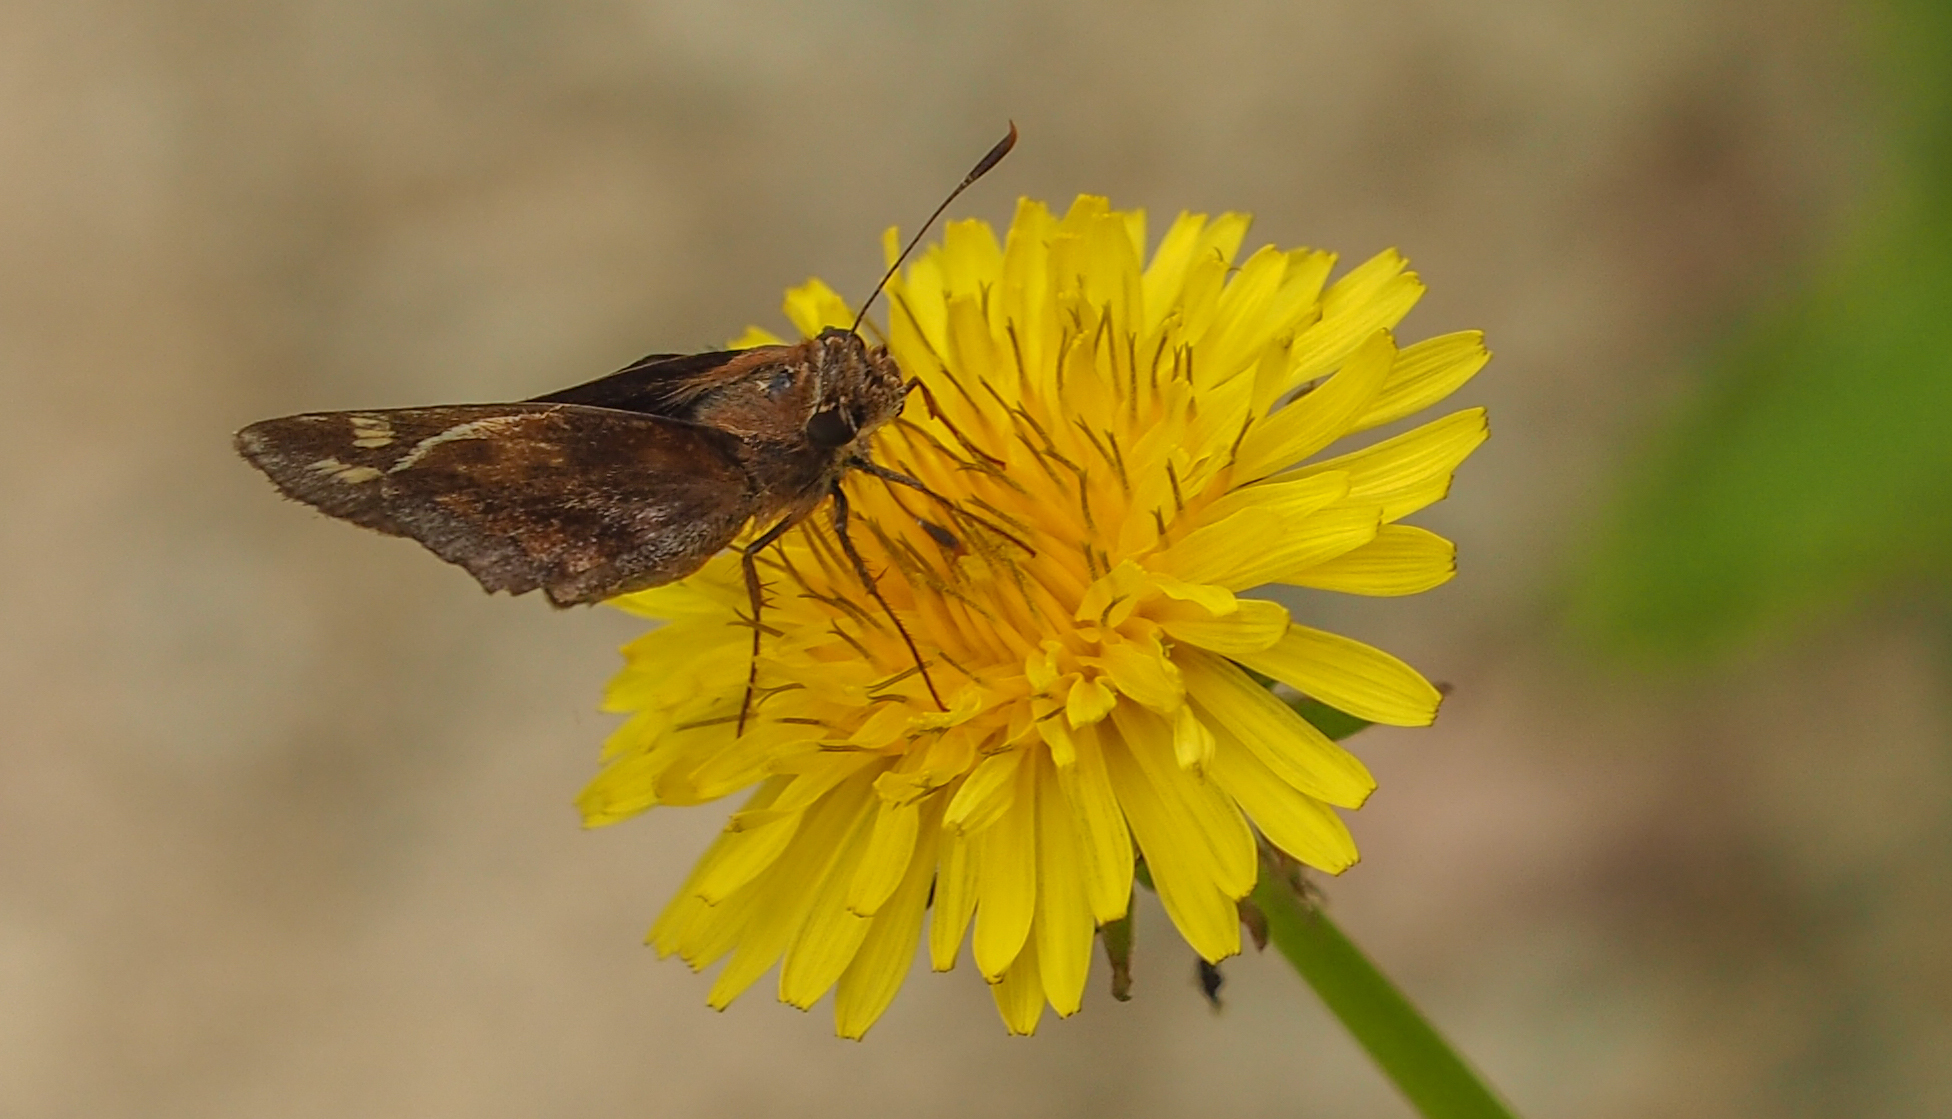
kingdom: Animalia
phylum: Arthropoda
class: Insecta
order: Lepidoptera
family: Hesperiidae
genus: Lon
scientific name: Lon zabulon
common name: Zabulon skipper
